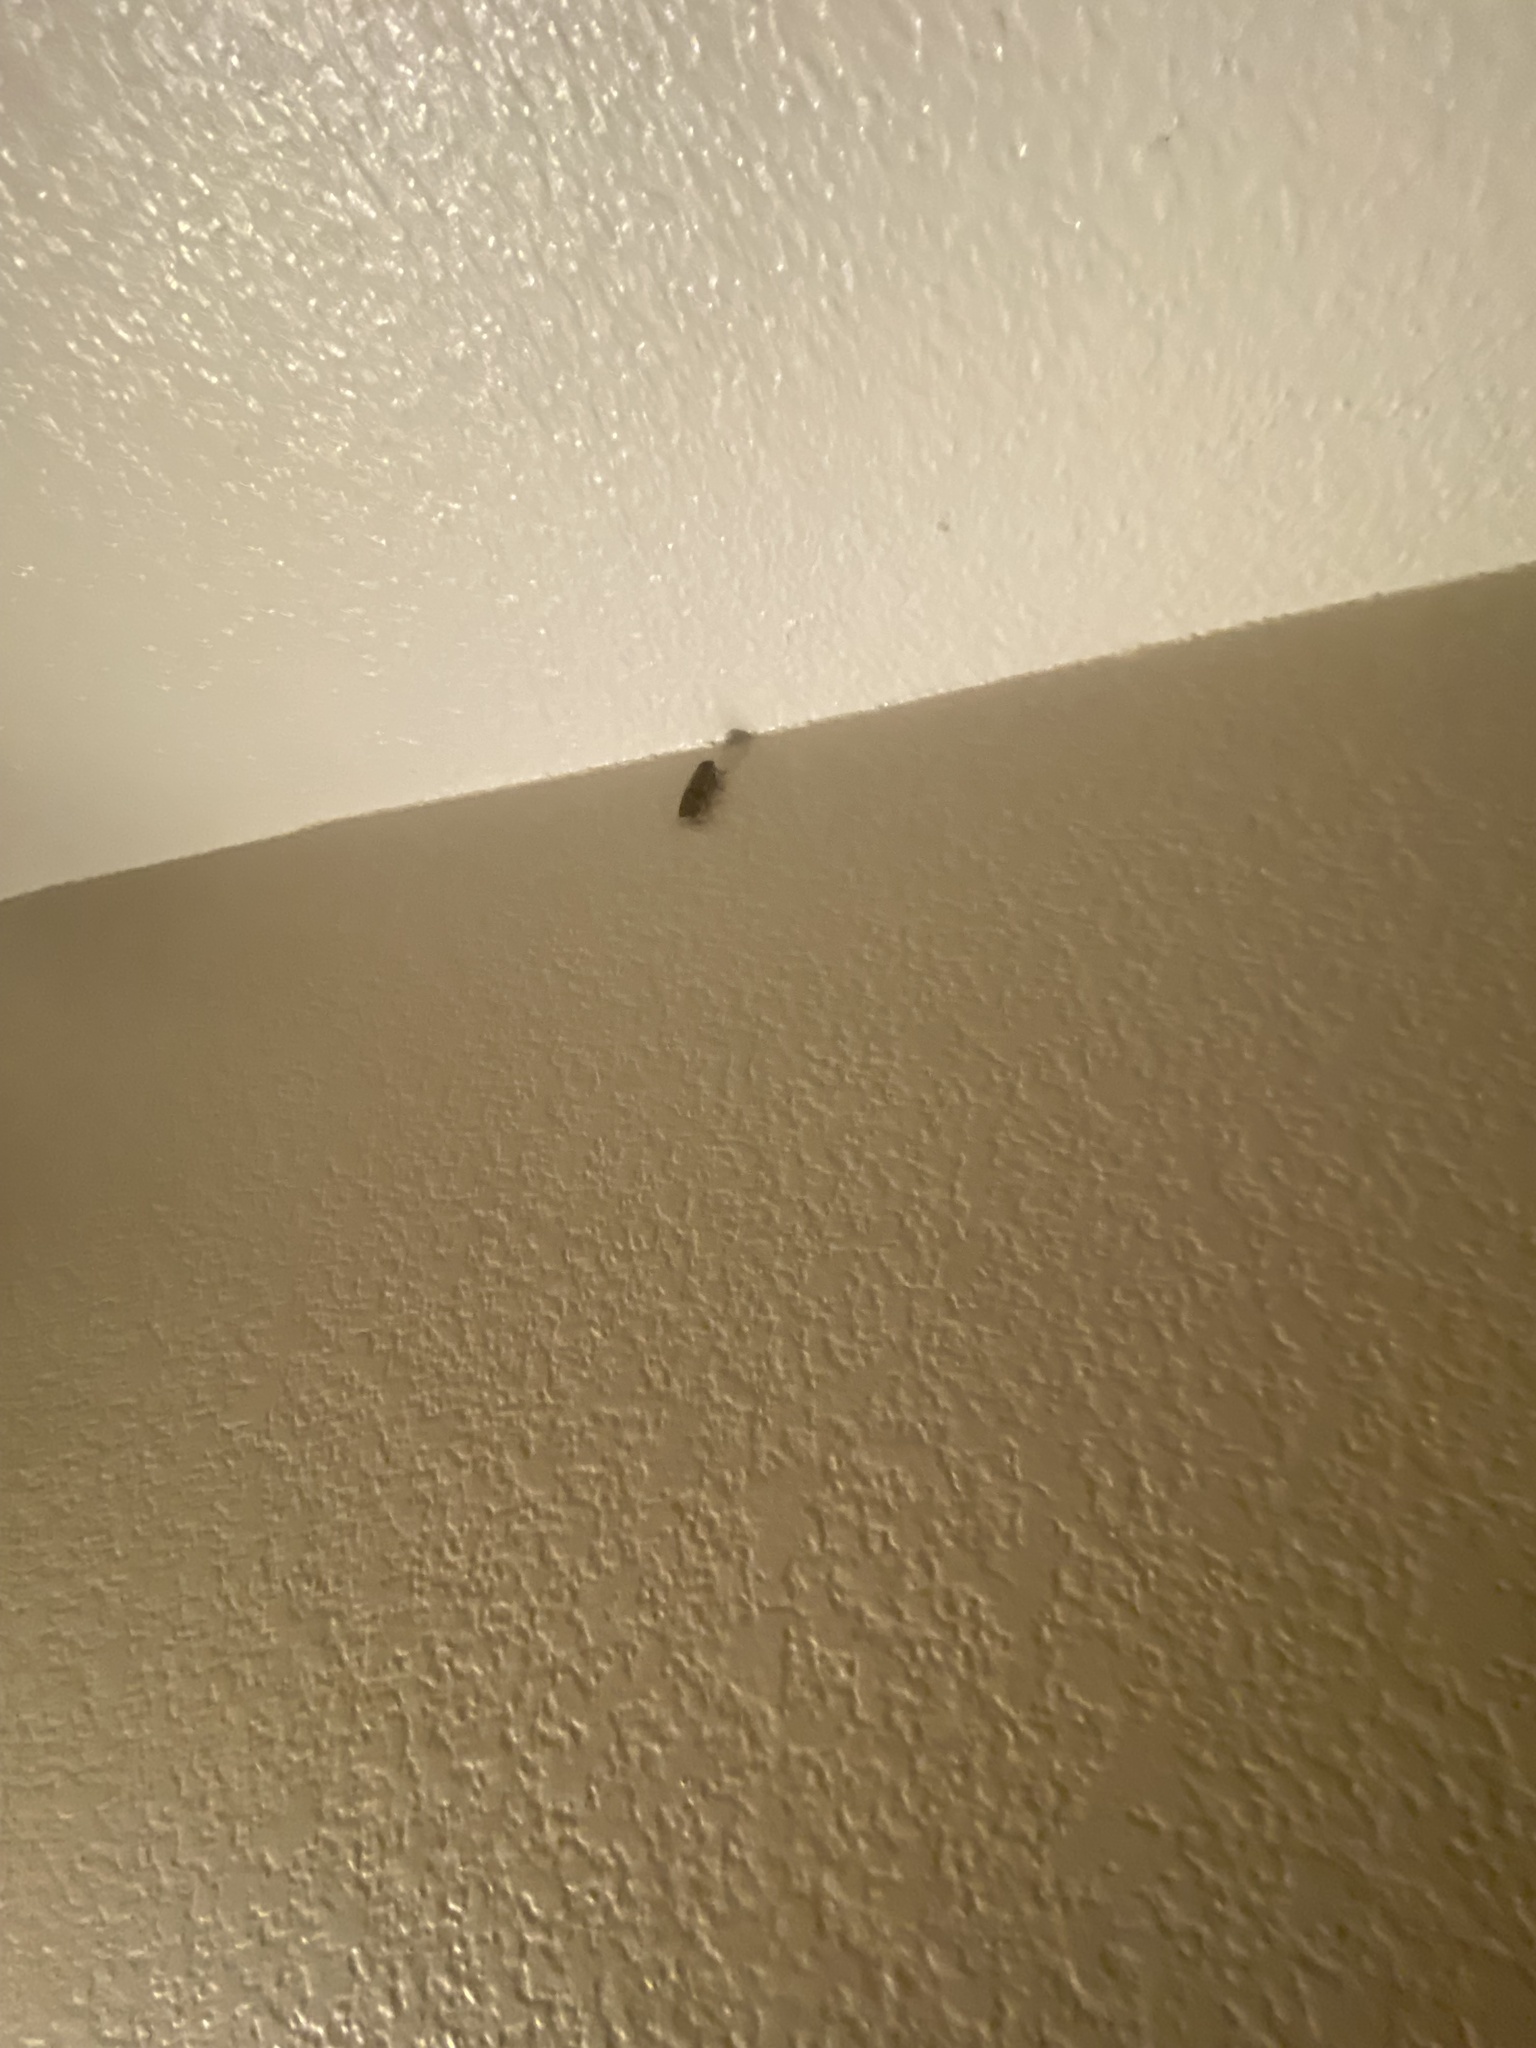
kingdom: Animalia
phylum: Arthropoda
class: Insecta
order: Lepidoptera
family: Noctuidae
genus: Noctua
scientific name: Noctua pronuba
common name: Large yellow underwing
